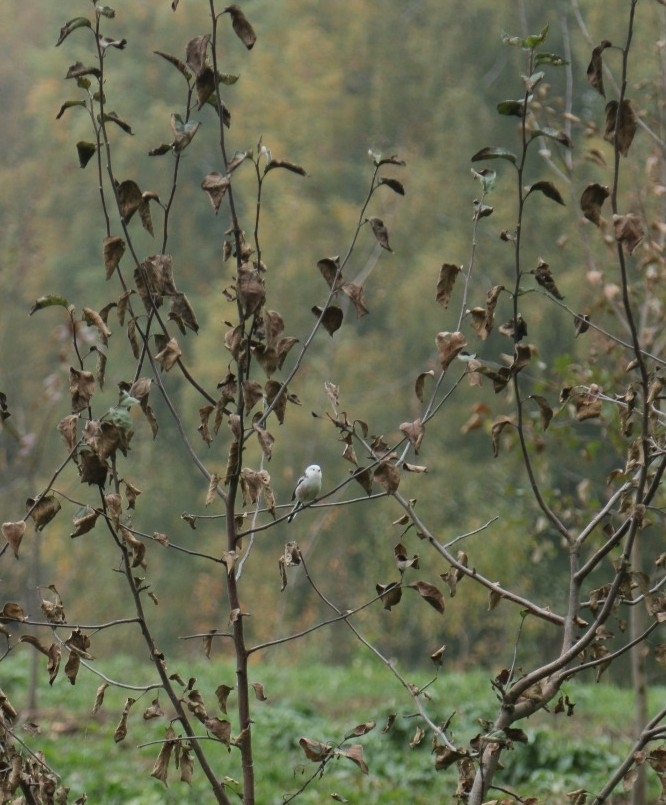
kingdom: Animalia
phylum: Chordata
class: Aves
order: Passeriformes
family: Aegithalidae
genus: Aegithalos
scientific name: Aegithalos caudatus
